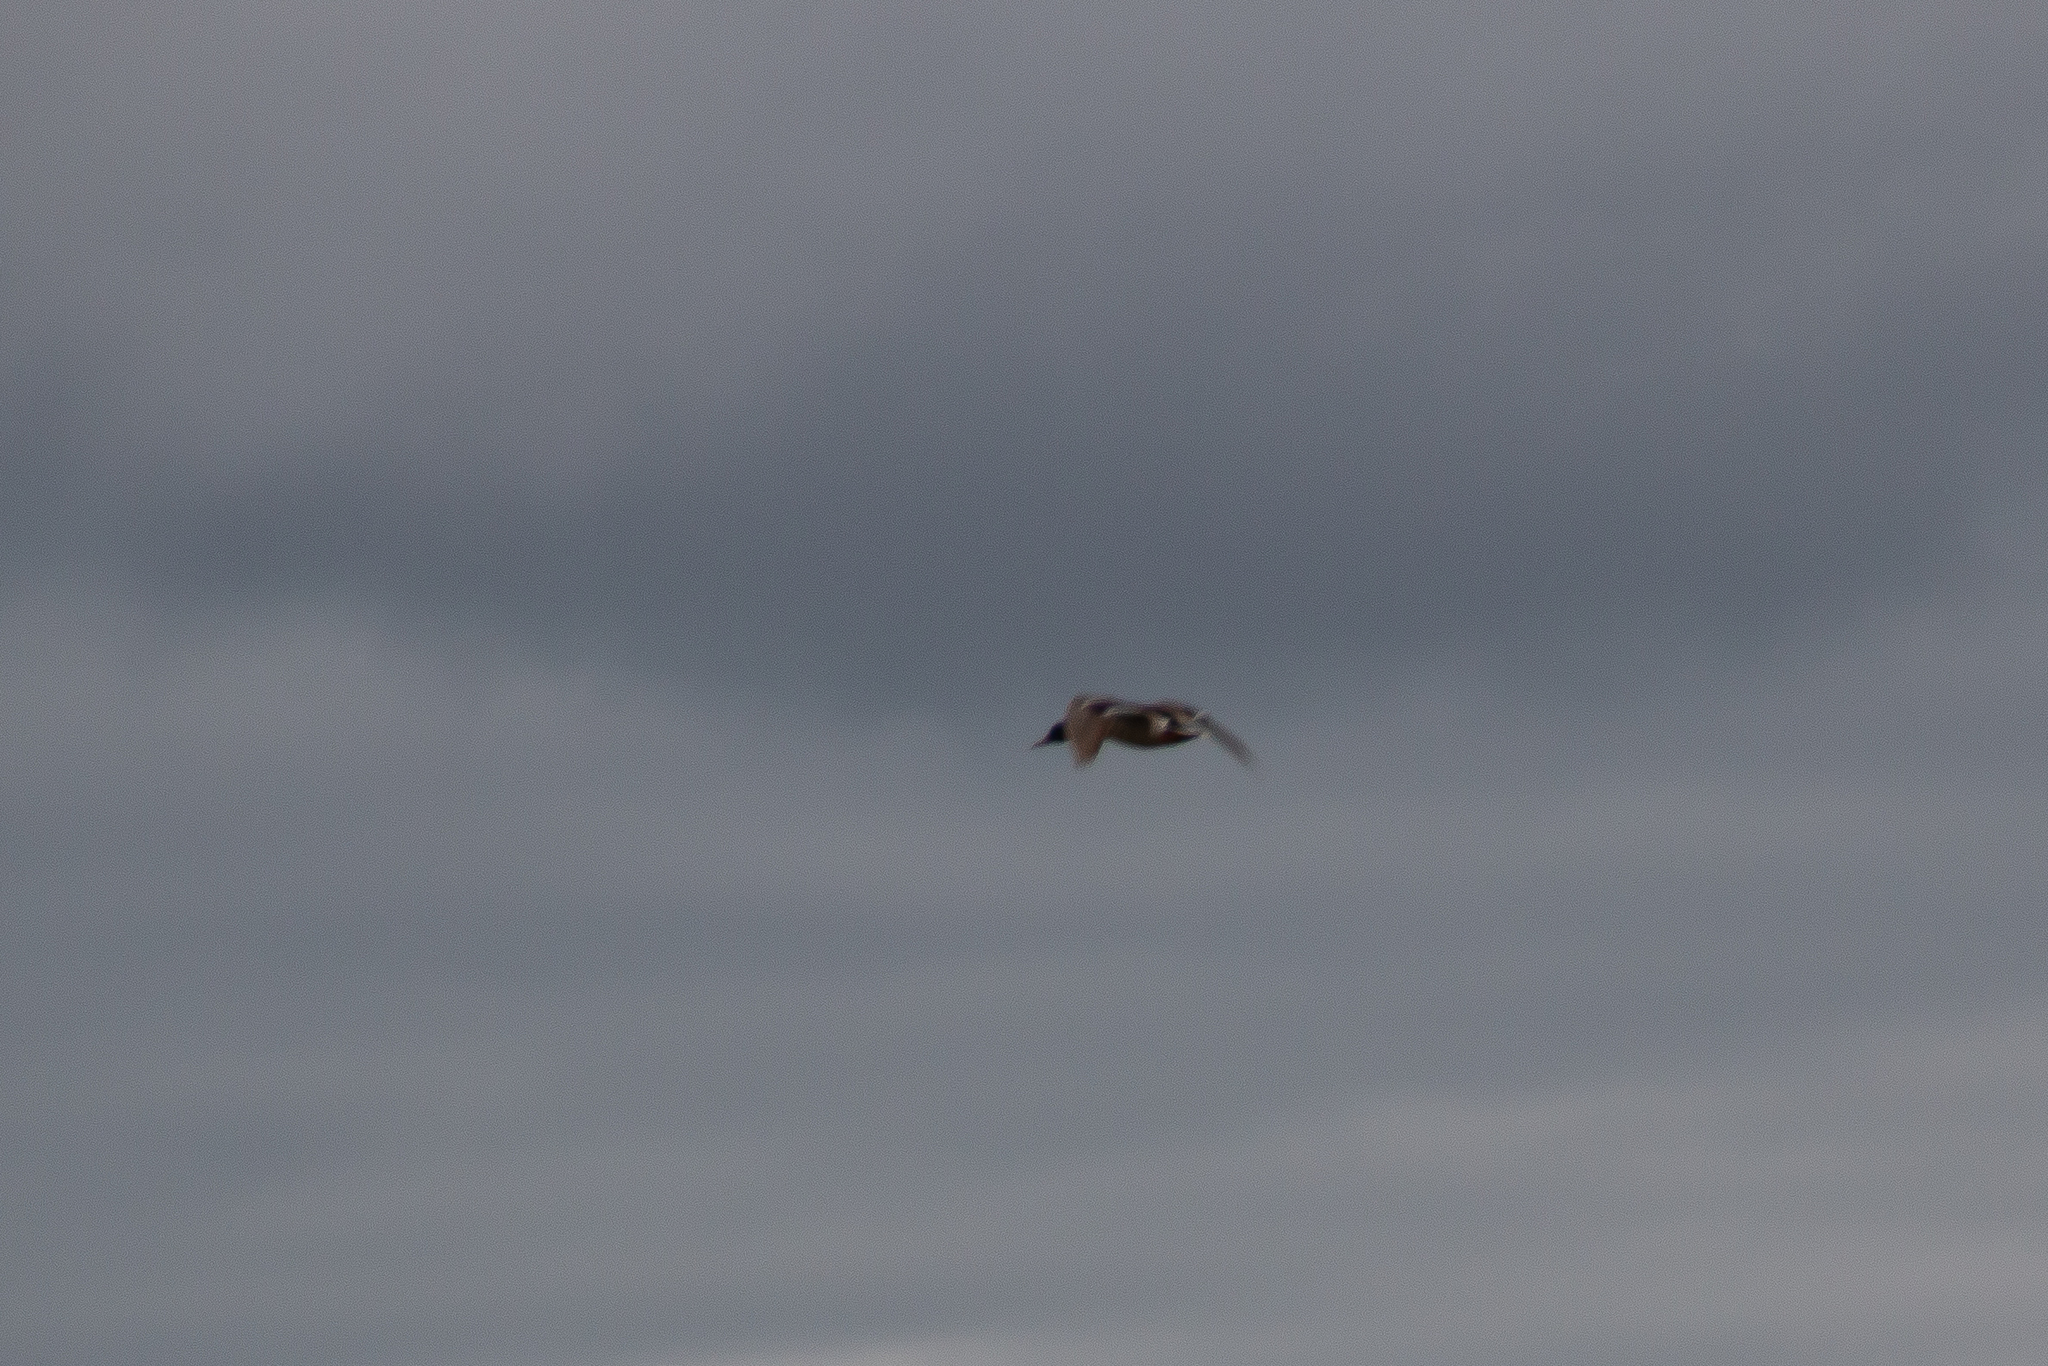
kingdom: Animalia
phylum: Chordata
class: Aves
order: Anseriformes
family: Anatidae
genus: Anas
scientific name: Anas platyrhynchos
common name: Mallard
